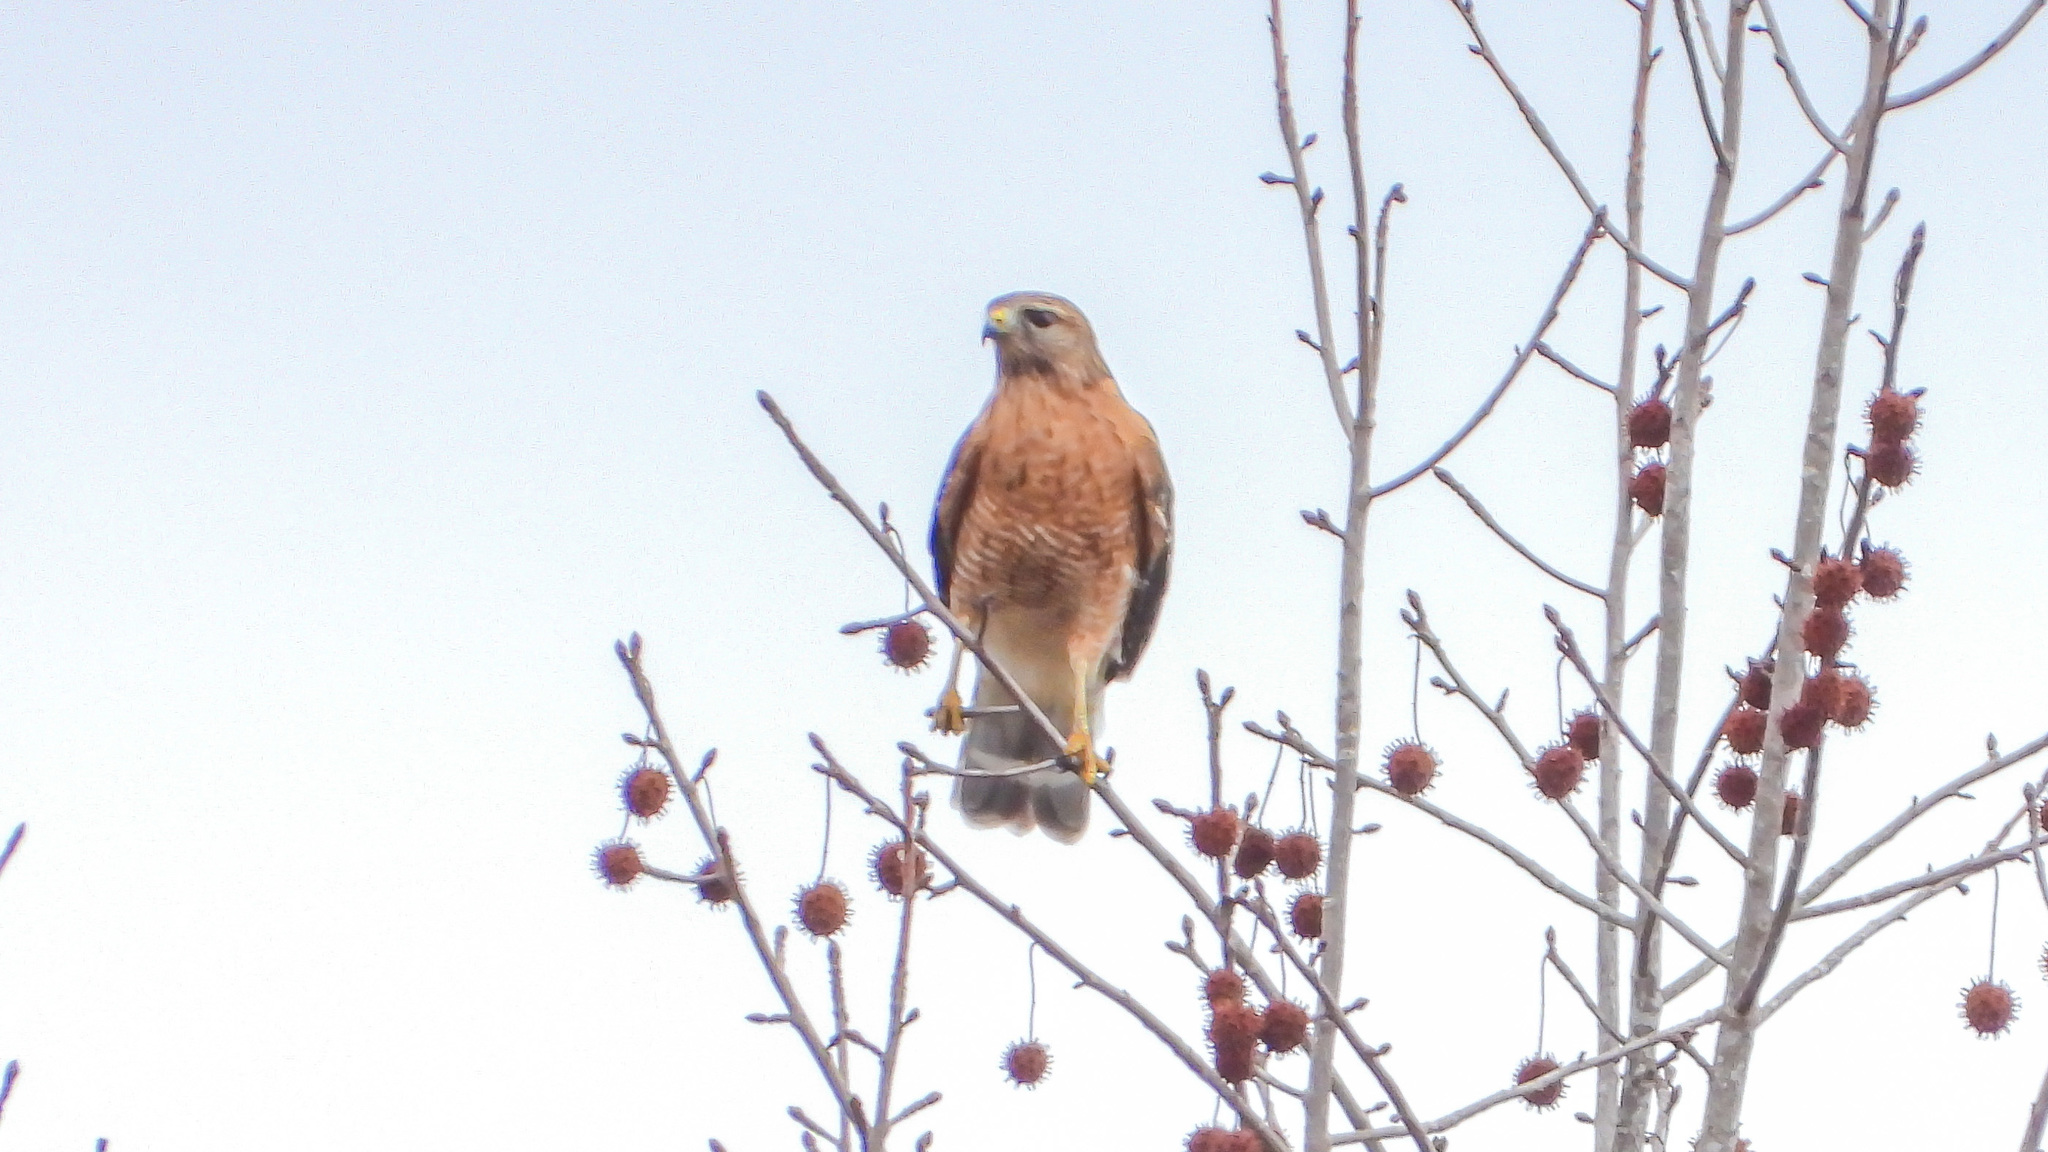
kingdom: Animalia
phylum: Chordata
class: Aves
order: Accipitriformes
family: Accipitridae
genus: Buteo
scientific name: Buteo lineatus
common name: Red-shouldered hawk
